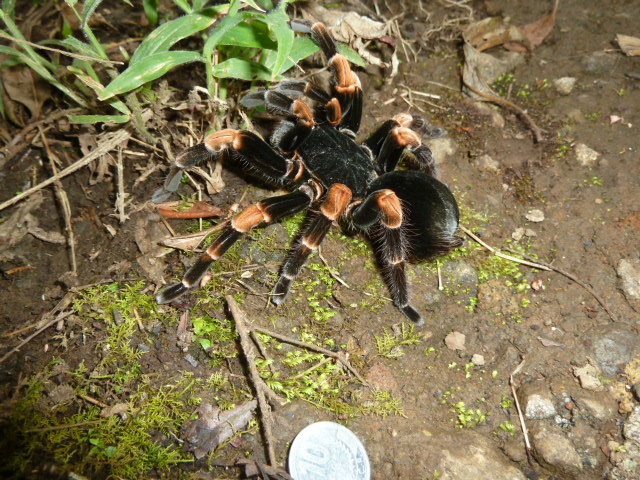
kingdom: Animalia
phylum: Arthropoda
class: Arachnida
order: Araneae
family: Theraphosidae
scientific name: Theraphosidae
